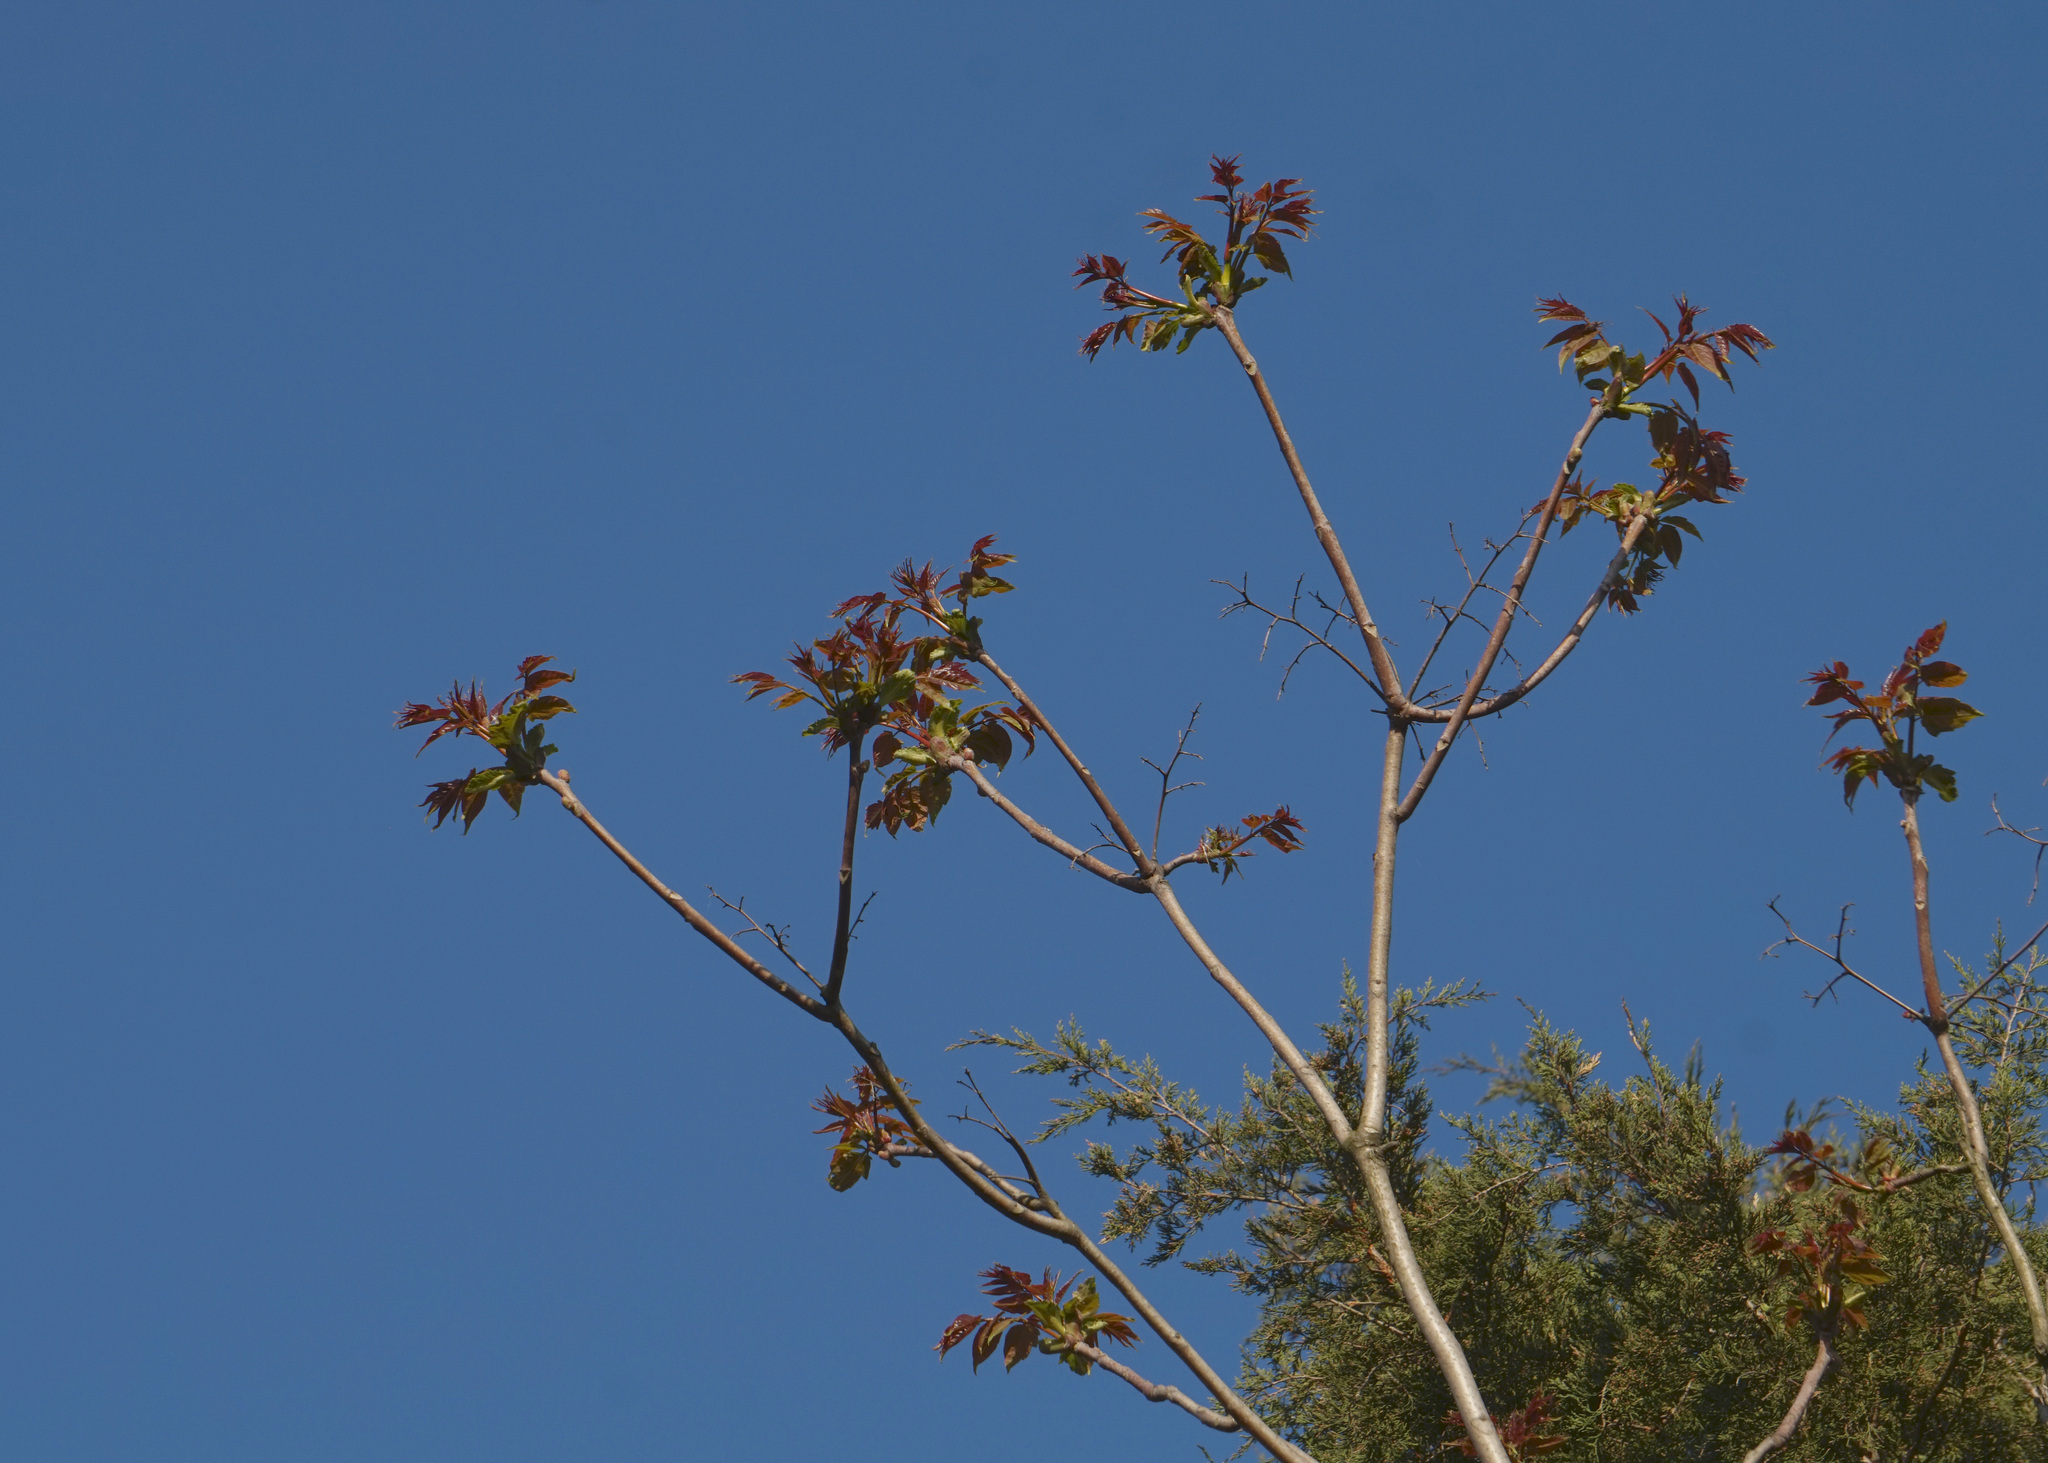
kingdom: Plantae
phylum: Tracheophyta
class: Magnoliopsida
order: Sapindales
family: Simaroubaceae
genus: Ailanthus
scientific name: Ailanthus altissima
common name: Tree-of-heaven
